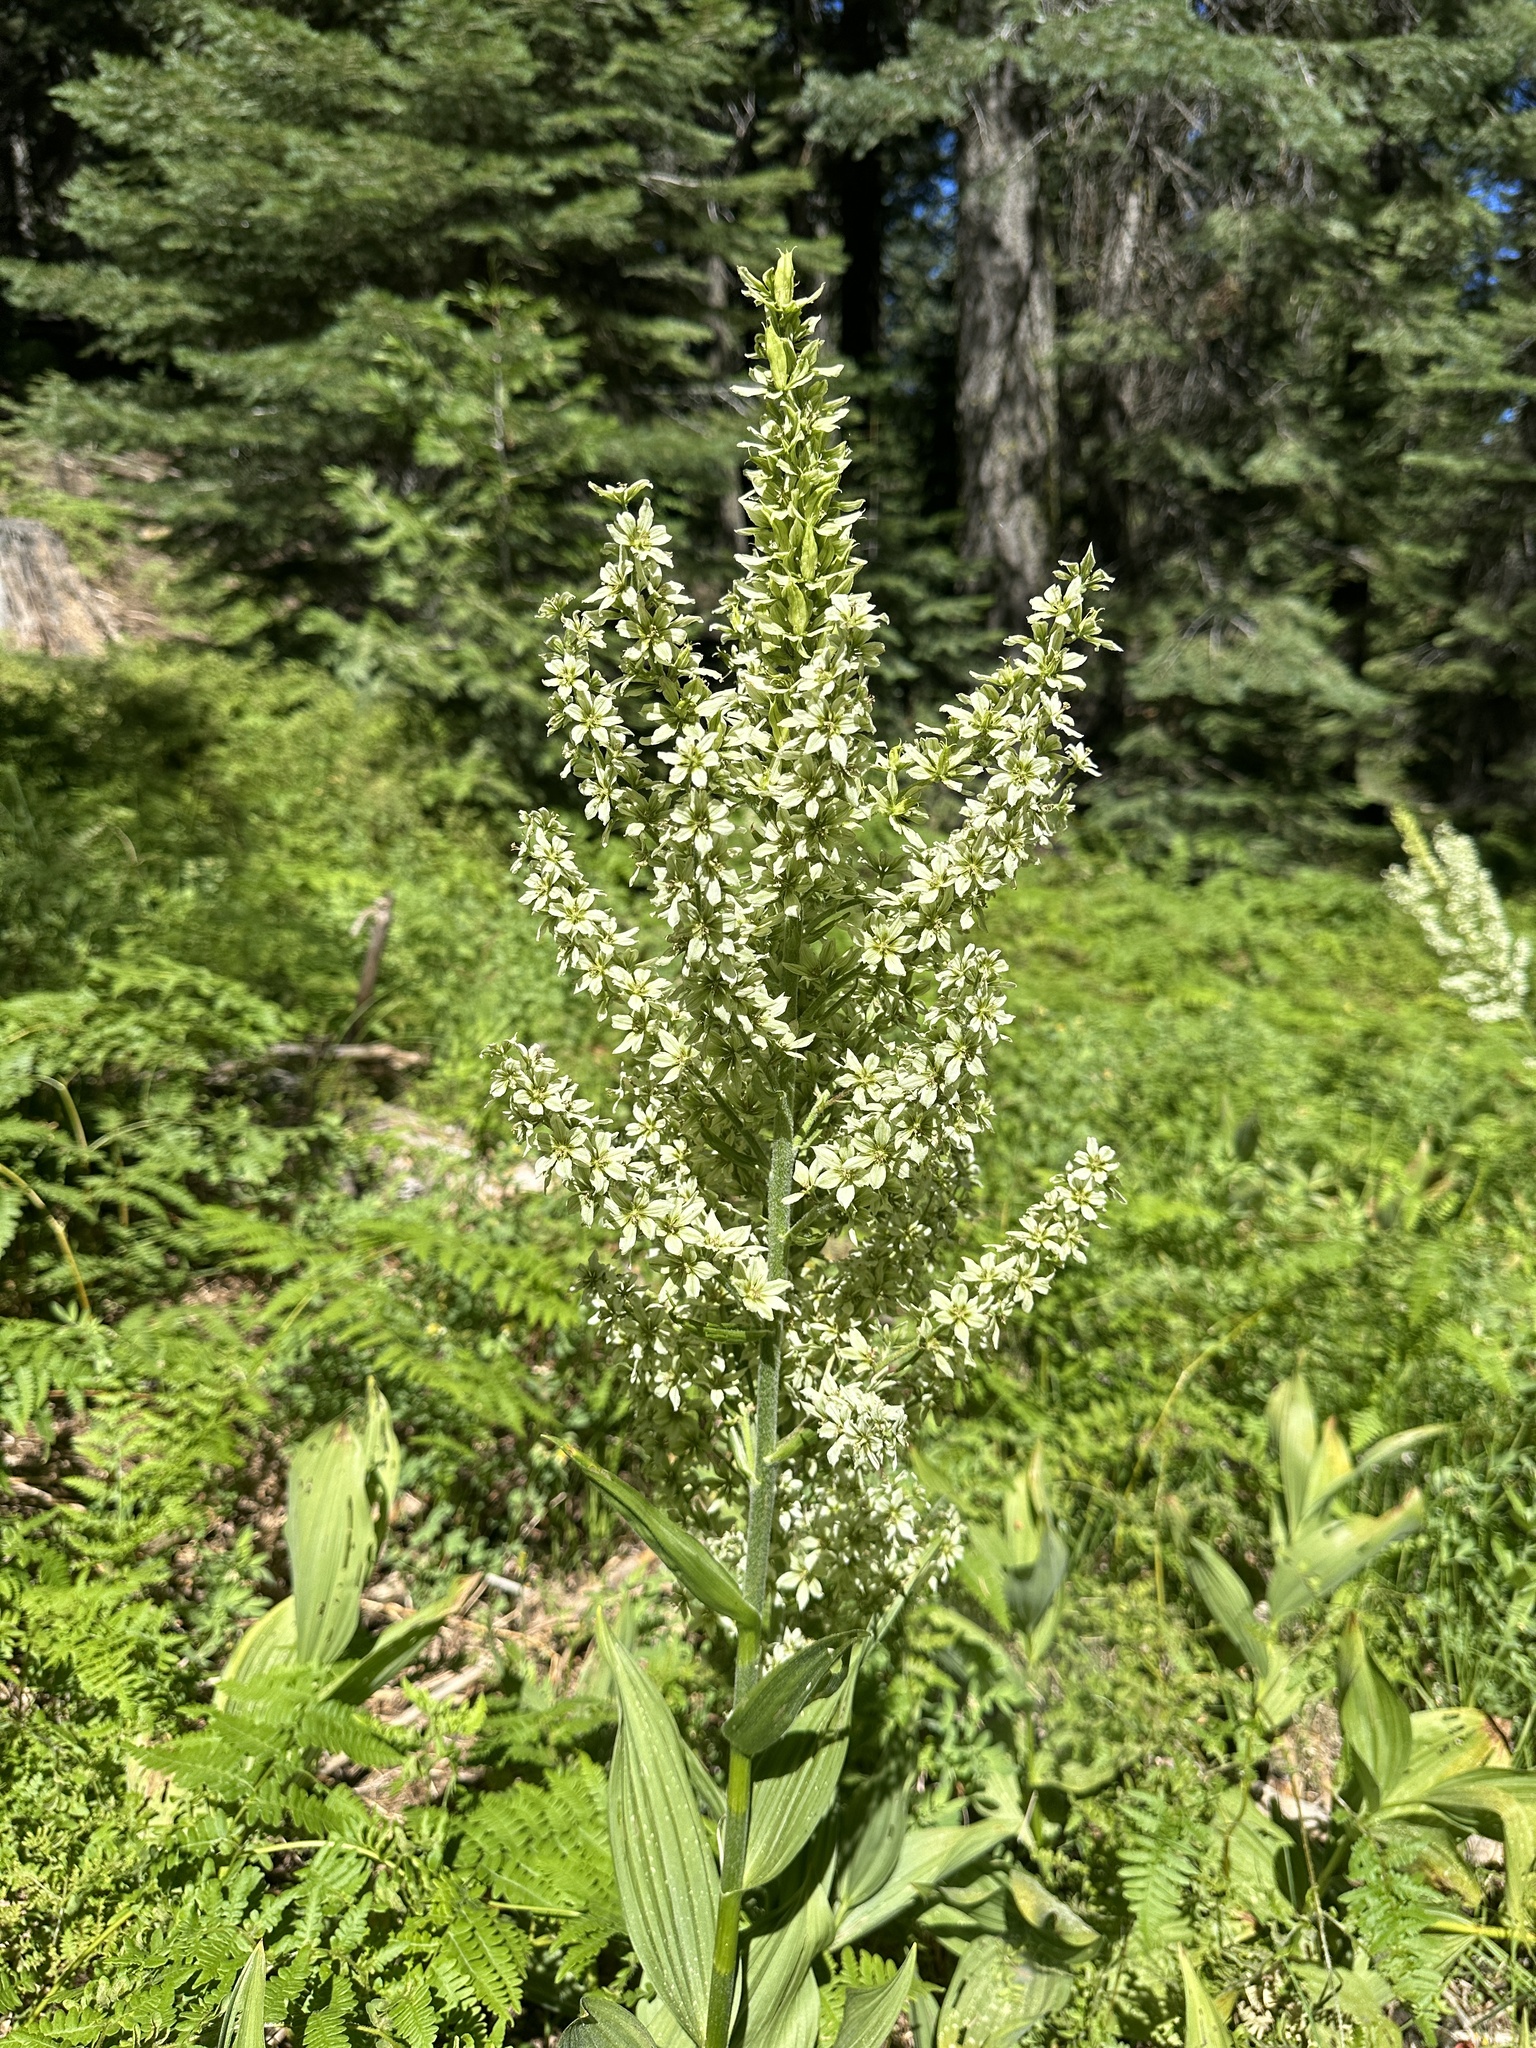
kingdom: Plantae
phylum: Tracheophyta
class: Liliopsida
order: Liliales
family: Melanthiaceae
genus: Veratrum
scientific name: Veratrum californicum
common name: California veratrum
